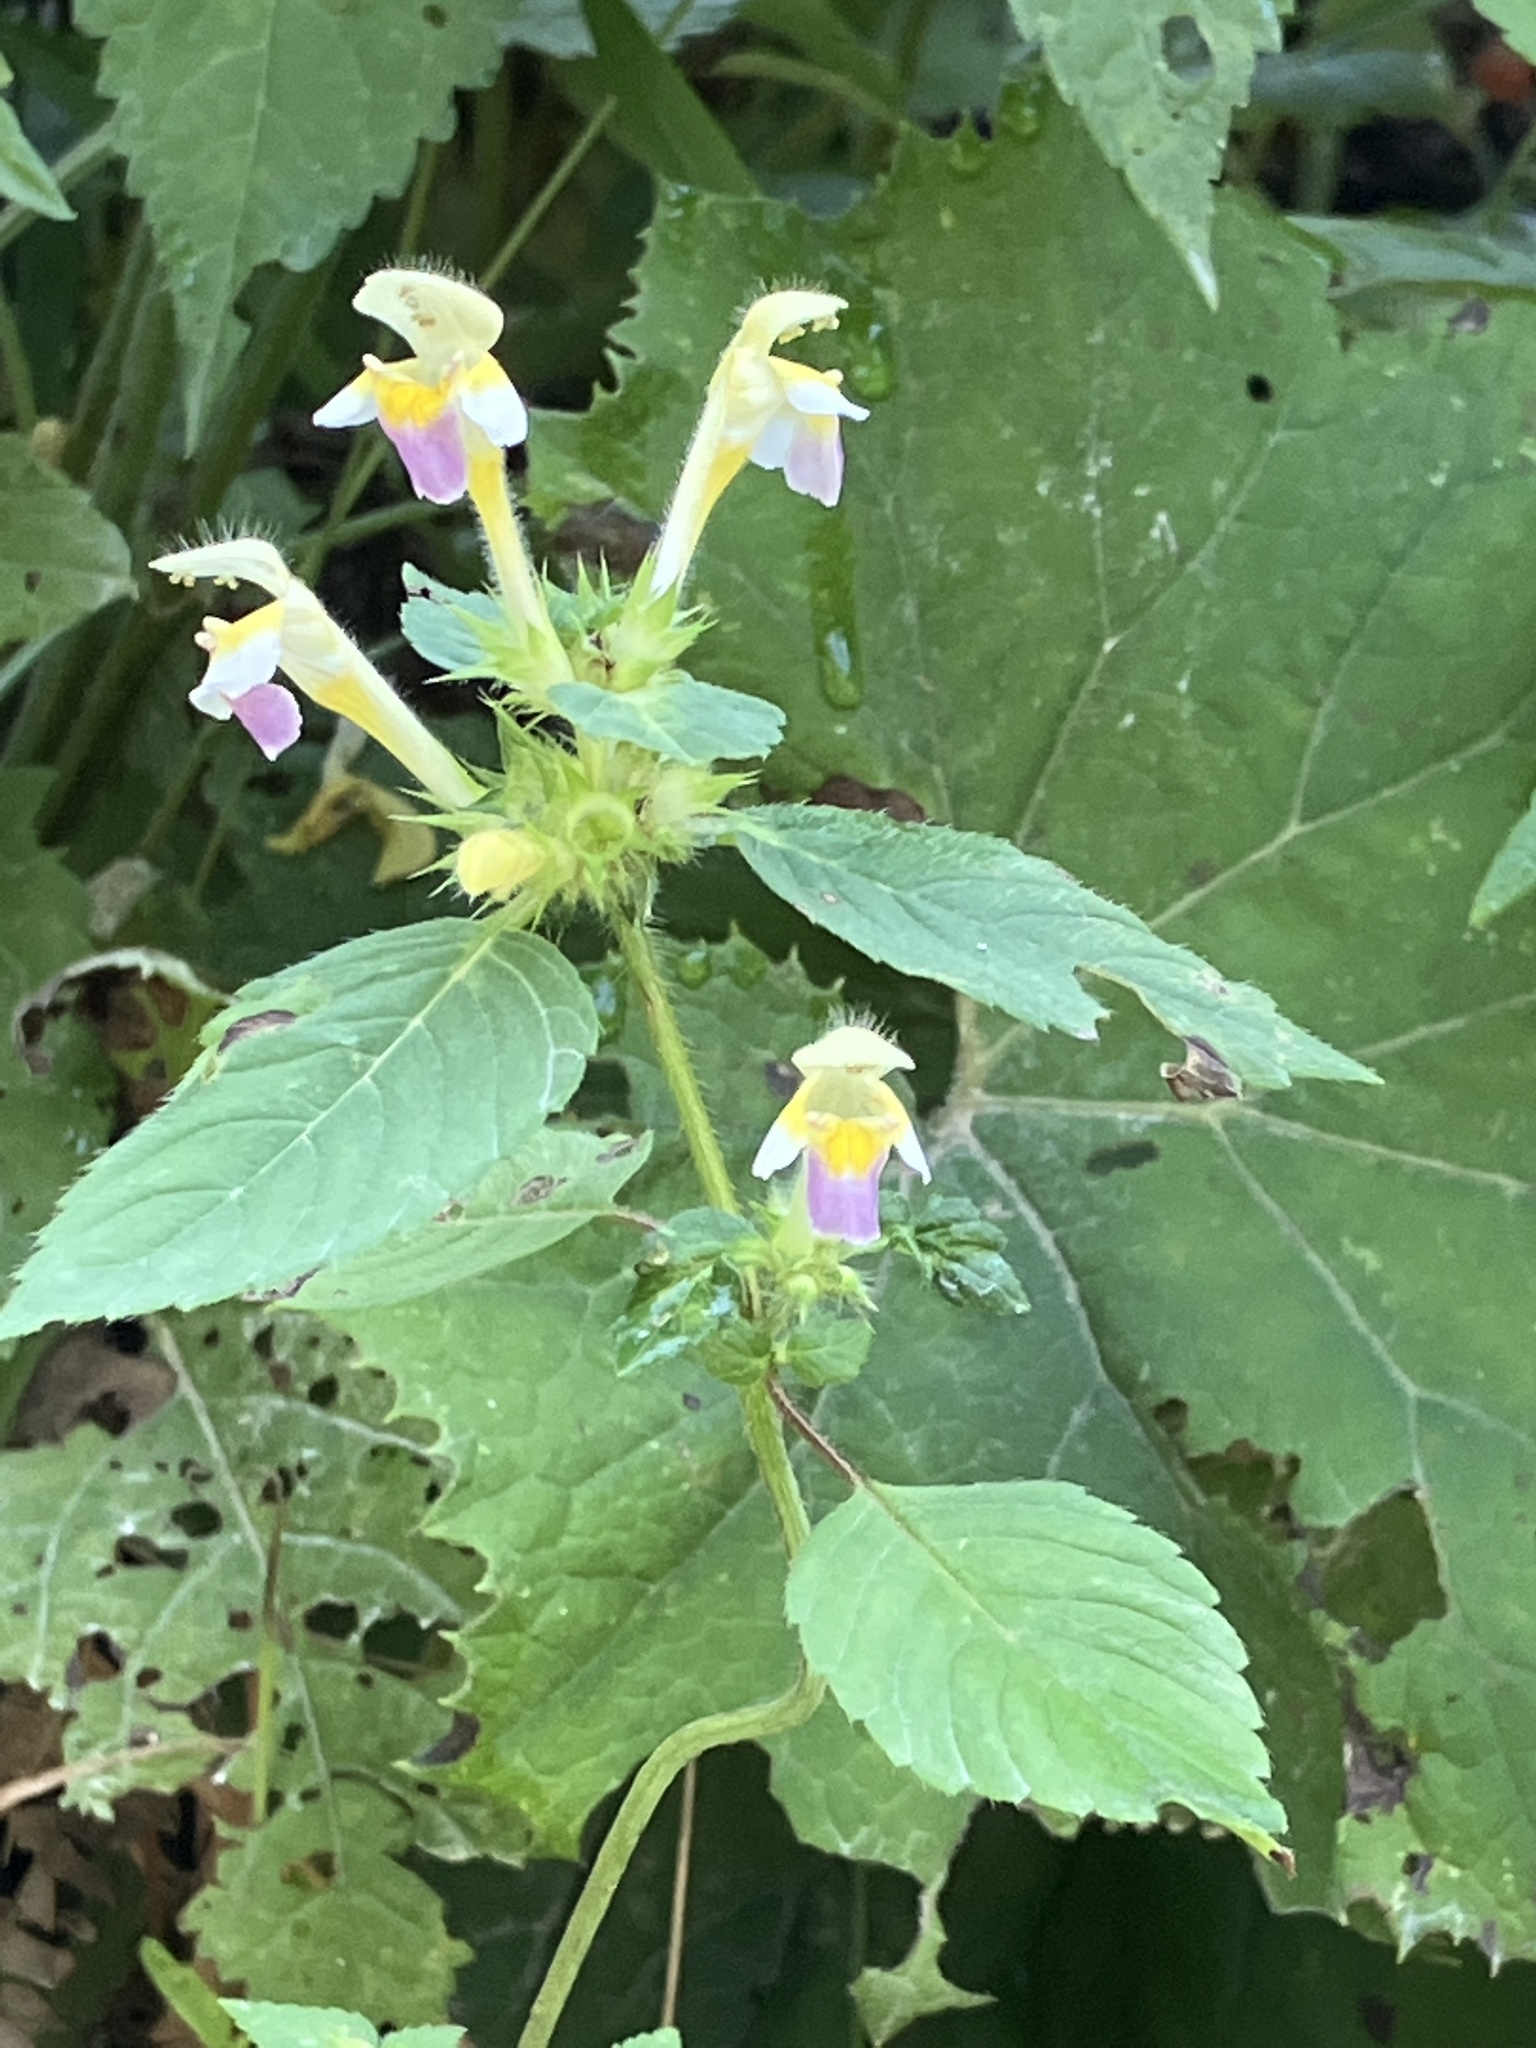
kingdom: Plantae
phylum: Tracheophyta
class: Magnoliopsida
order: Lamiales
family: Lamiaceae
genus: Galeopsis
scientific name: Galeopsis speciosa
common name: Large-flowered hemp-nettle
